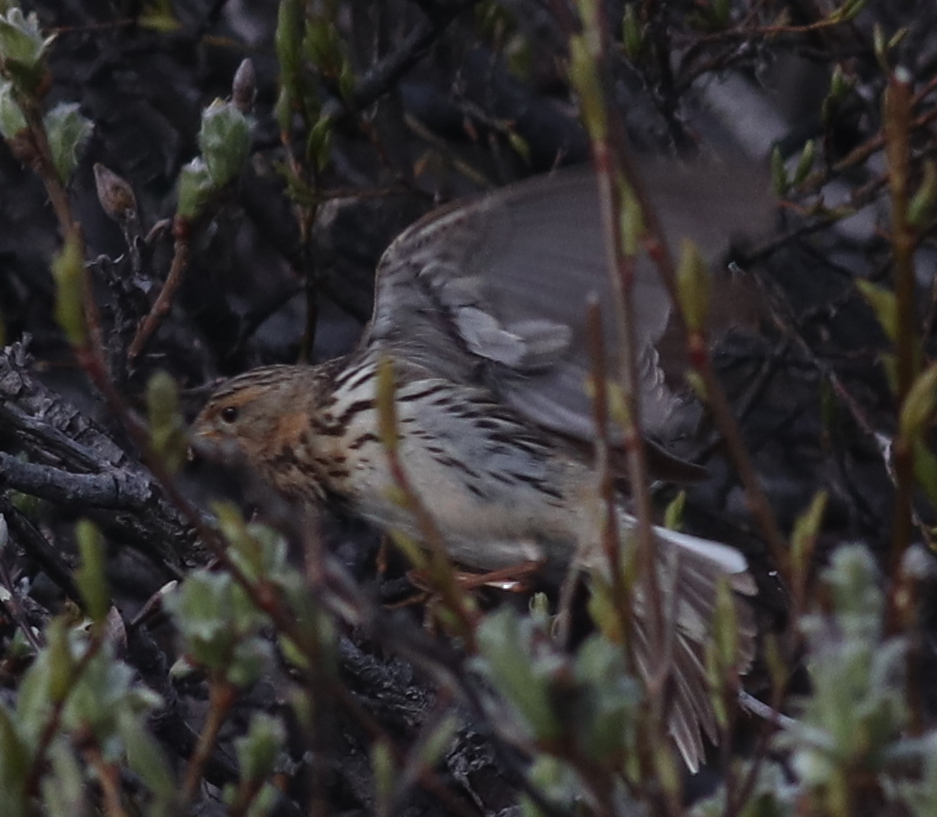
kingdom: Animalia
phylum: Chordata
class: Aves
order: Passeriformes
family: Motacillidae
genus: Anthus
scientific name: Anthus cervinus
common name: Red-throated pipit
